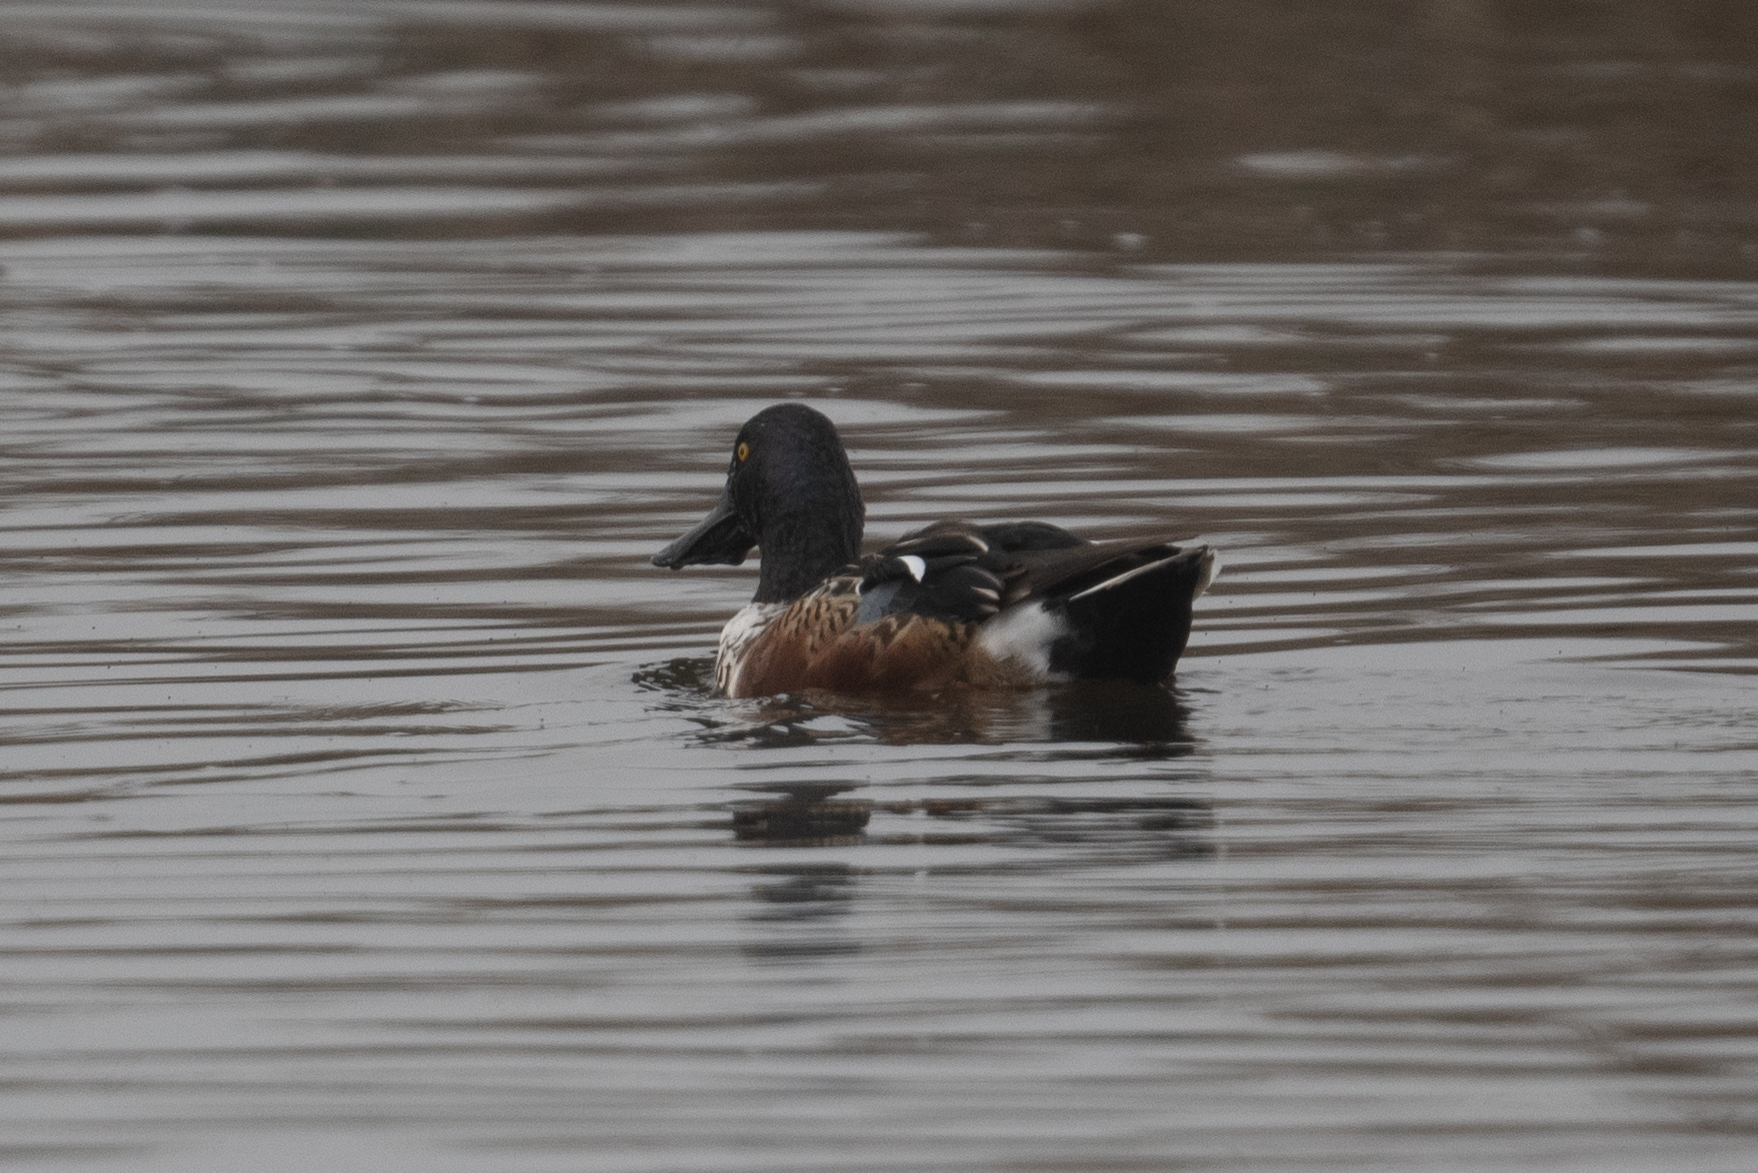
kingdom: Animalia
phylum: Chordata
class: Aves
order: Anseriformes
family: Anatidae
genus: Spatula
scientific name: Spatula clypeata
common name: Northern shoveler
